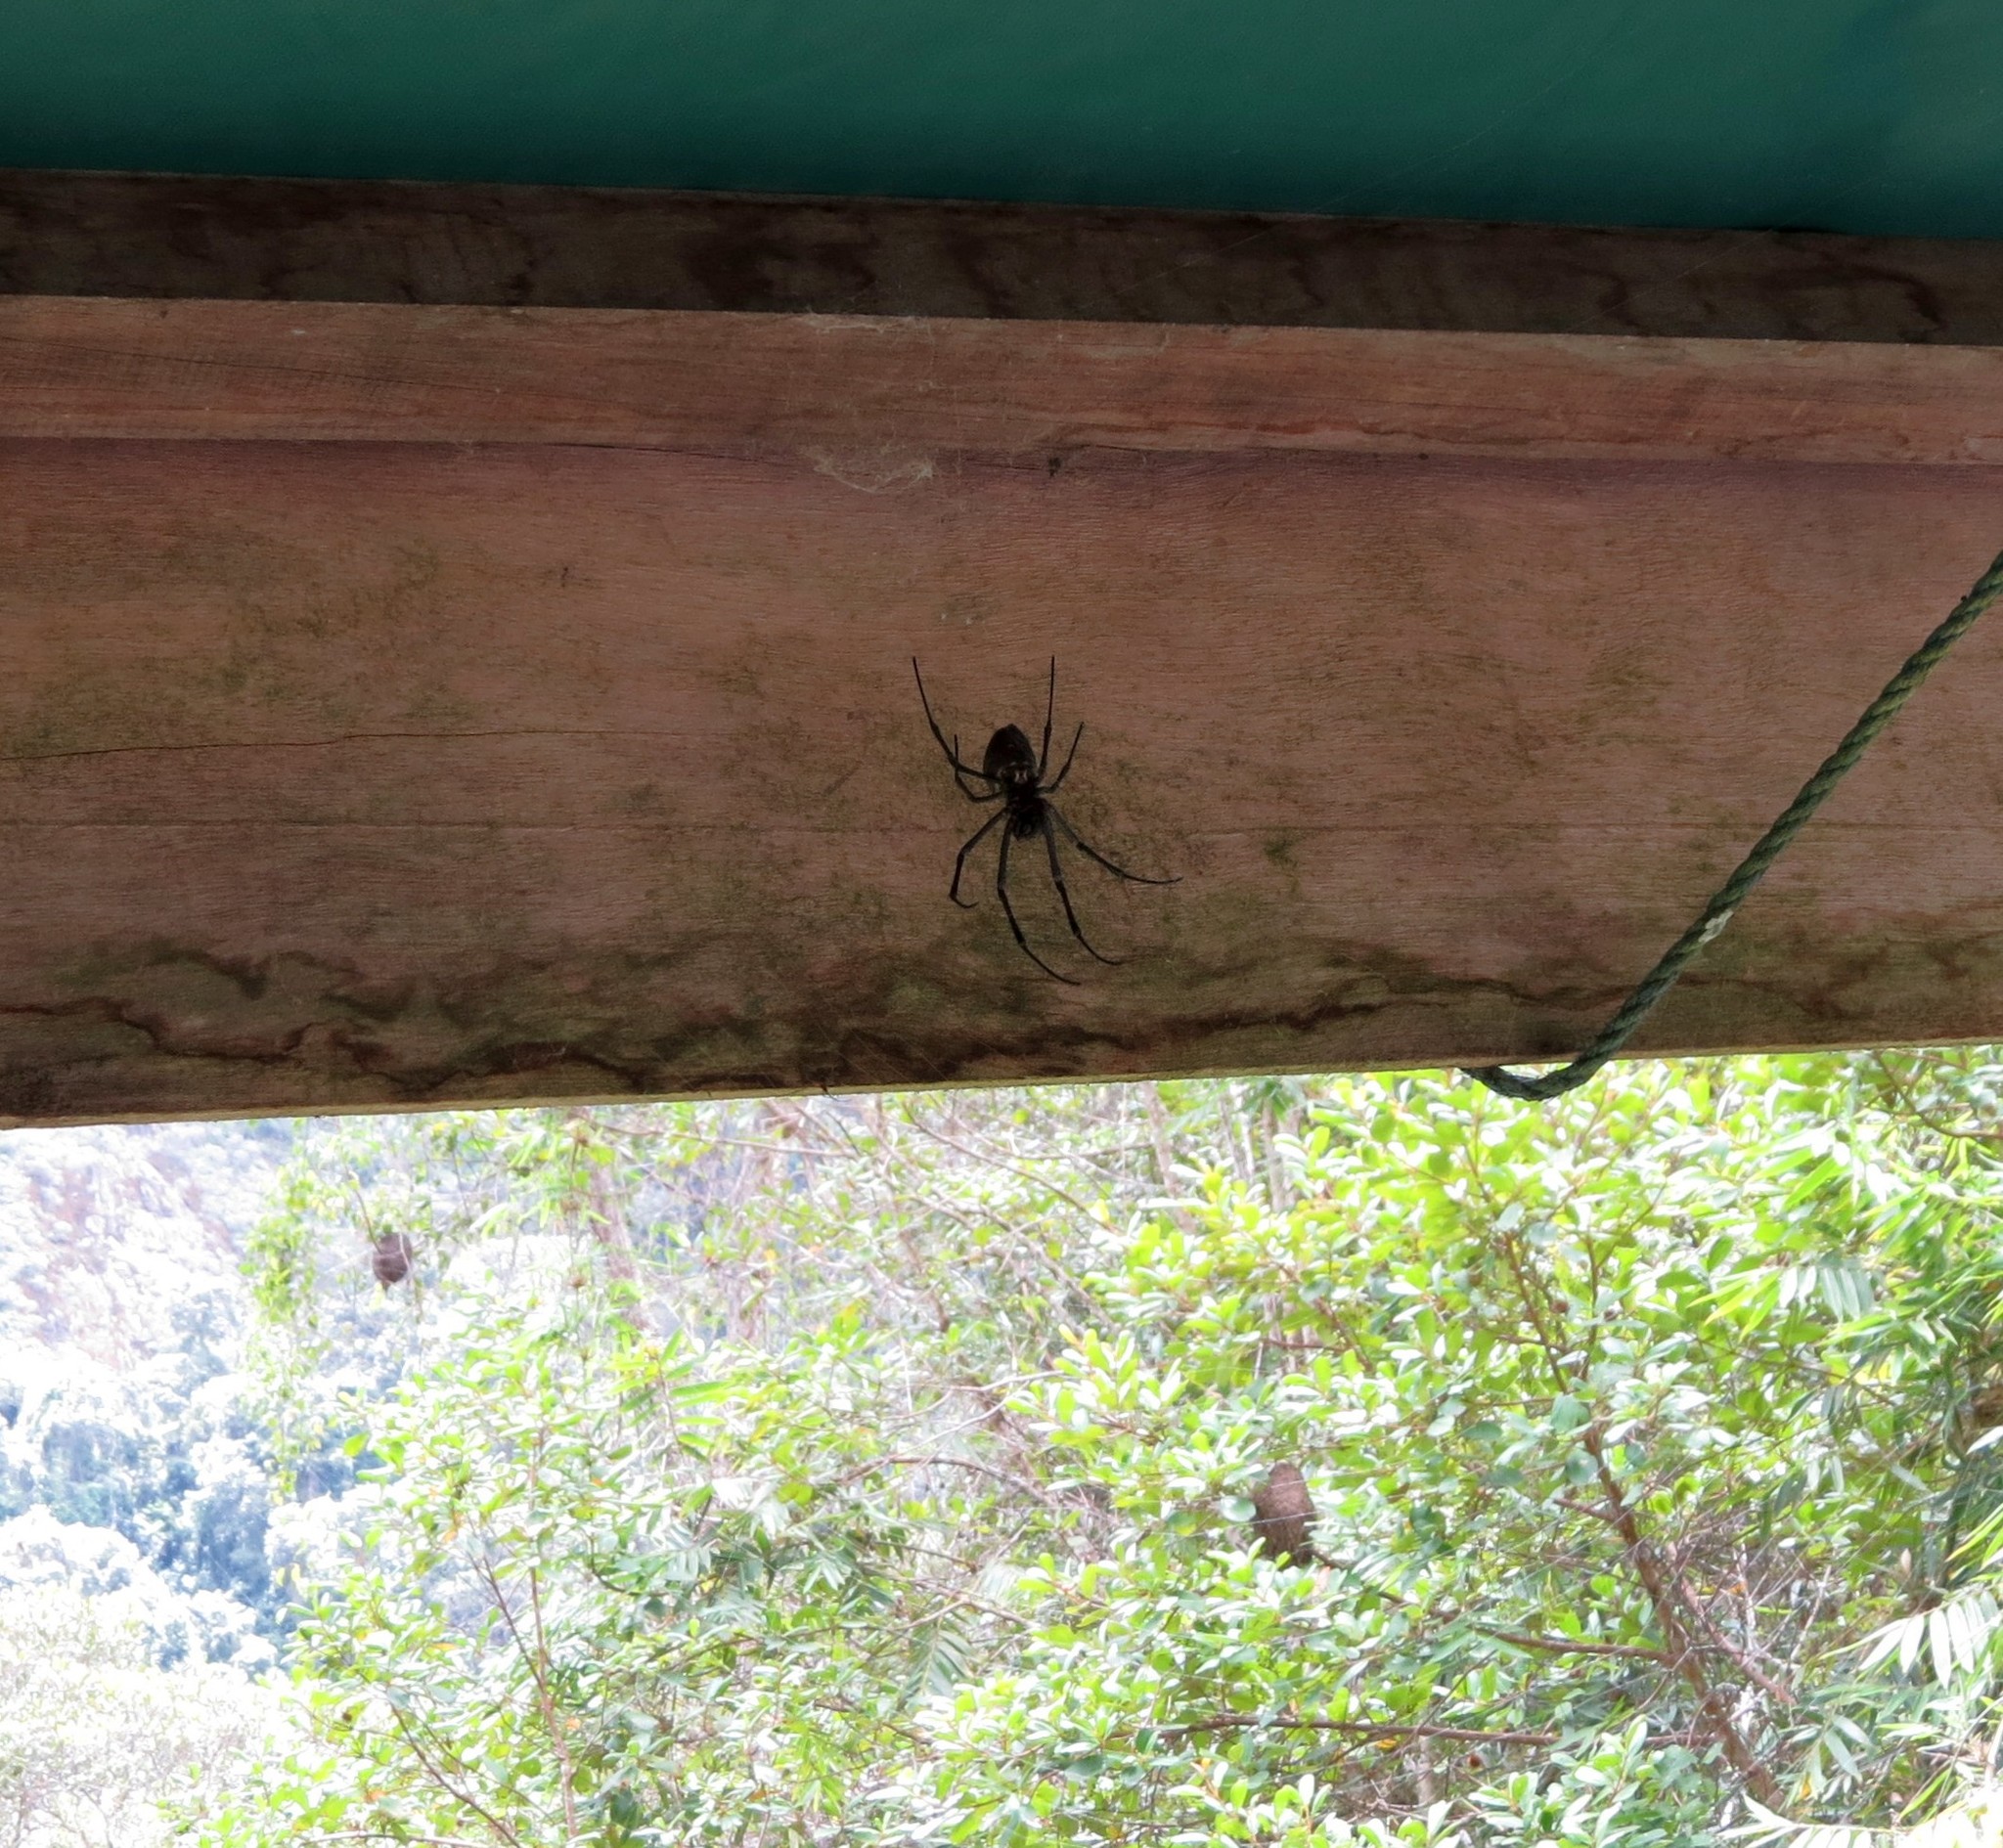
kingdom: Animalia
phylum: Arthropoda
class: Arachnida
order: Araneae
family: Araneidae
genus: Nephilingis
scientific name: Nephilingis livida
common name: Madagascar hermit spider
